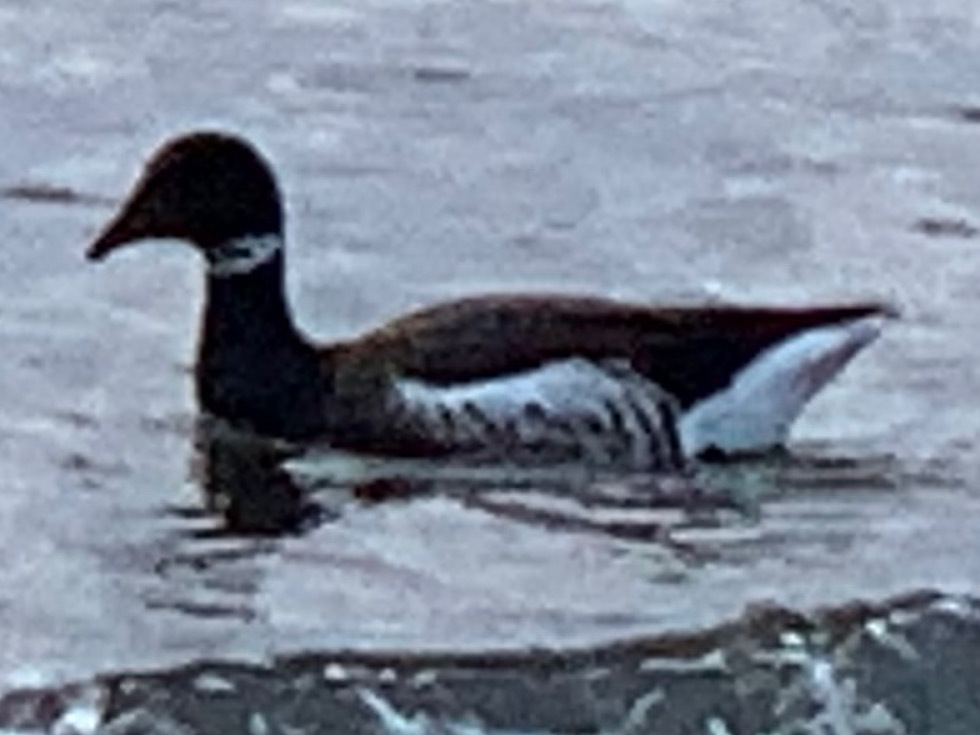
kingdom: Animalia
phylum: Chordata
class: Aves
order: Anseriformes
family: Anatidae
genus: Branta
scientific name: Branta bernicla
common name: Brant goose
